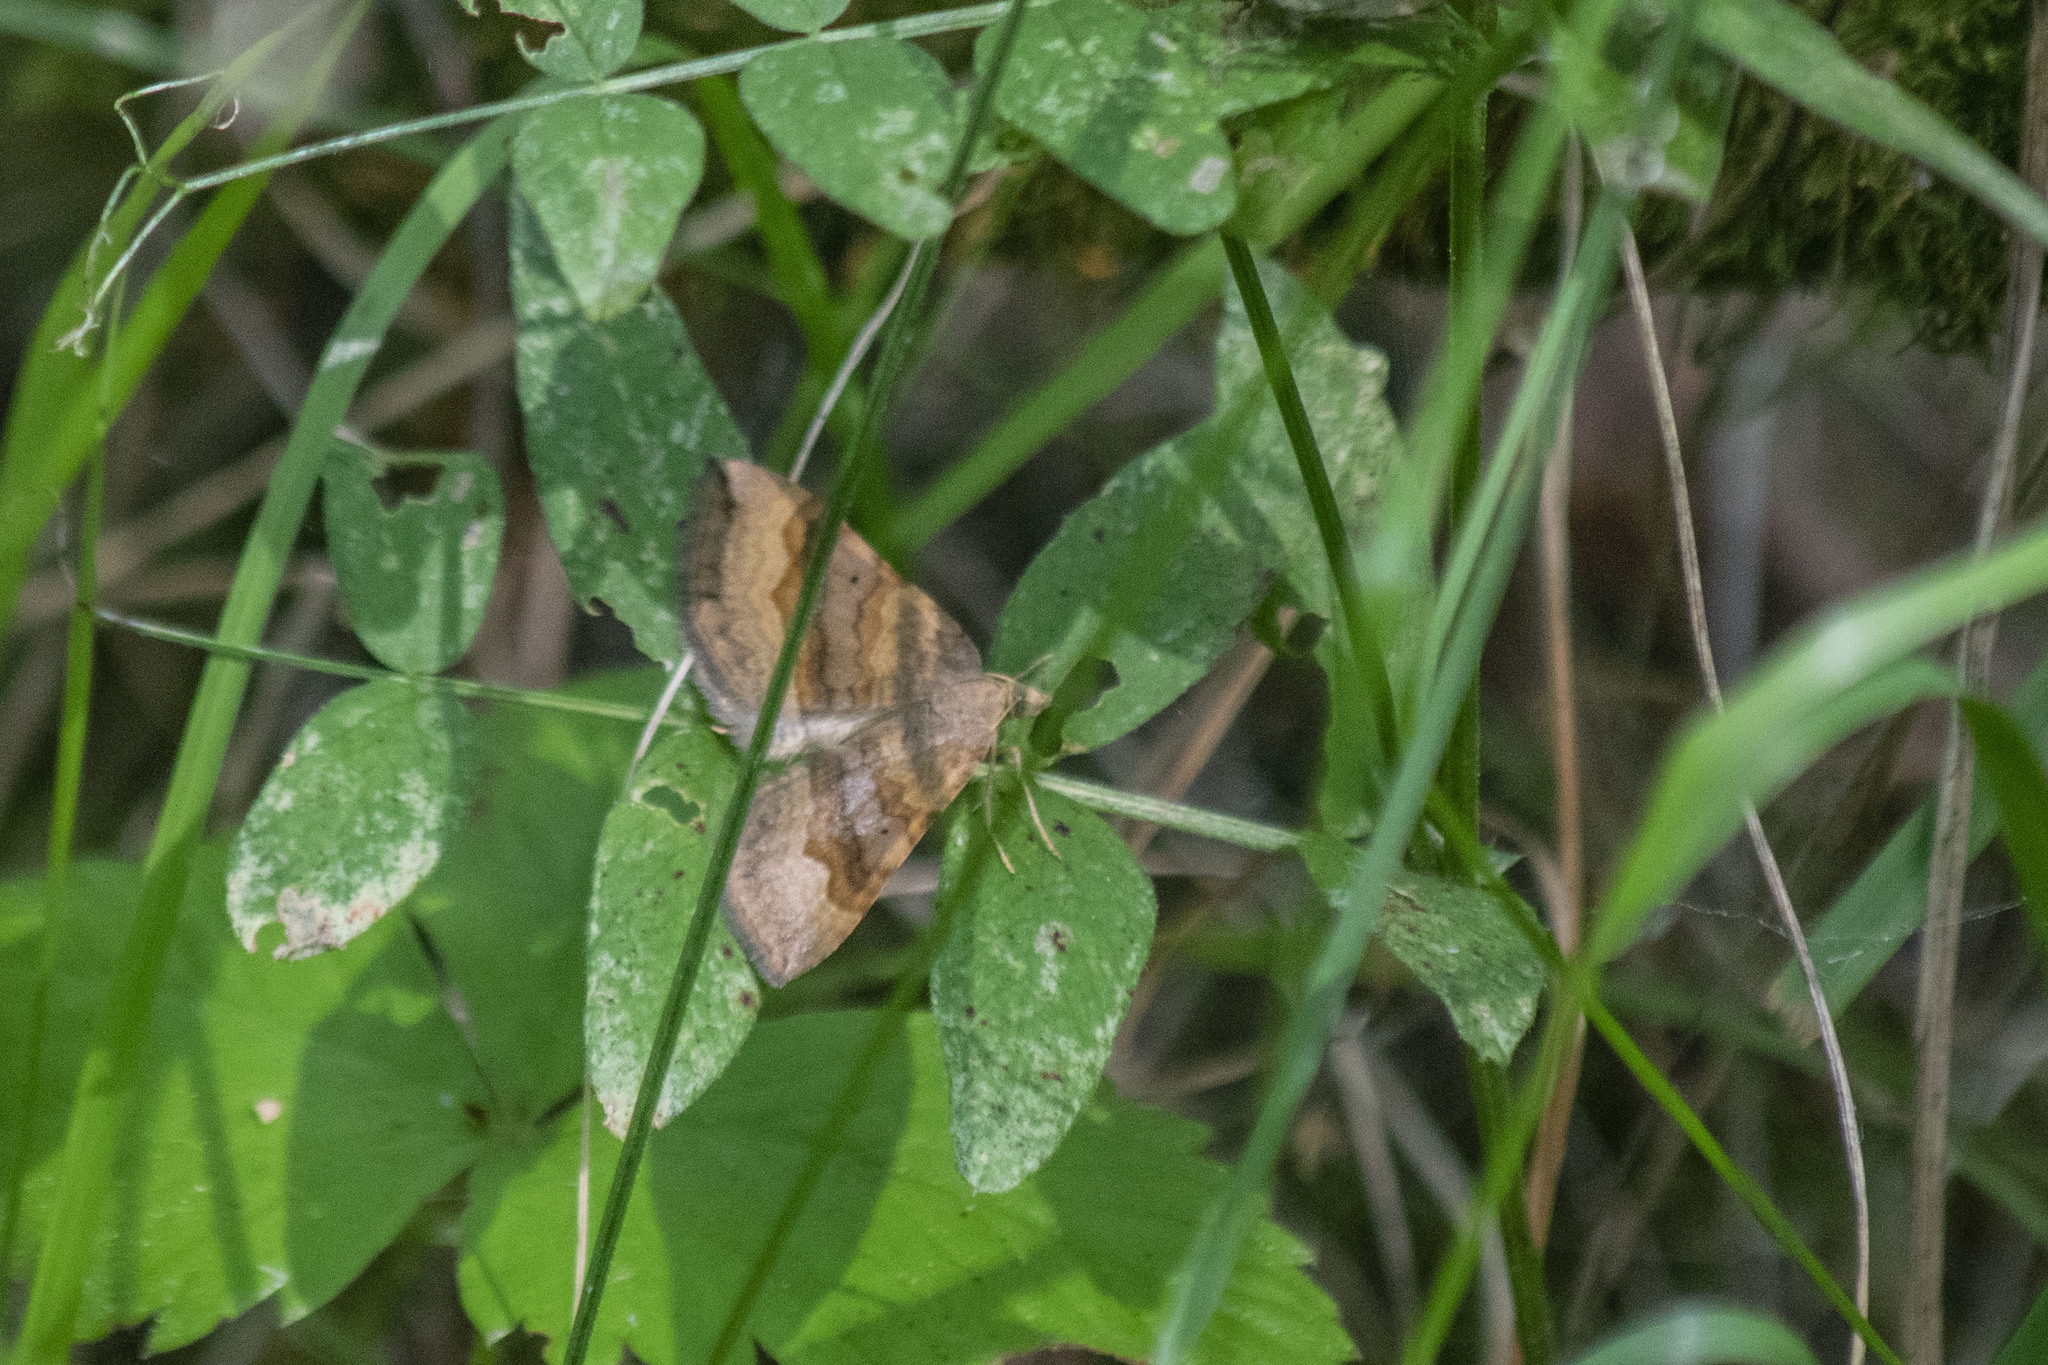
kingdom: Animalia
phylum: Arthropoda
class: Insecta
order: Lepidoptera
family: Geometridae
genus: Scotopteryx
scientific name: Scotopteryx chenopodiata
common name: Shaded broad-bar
